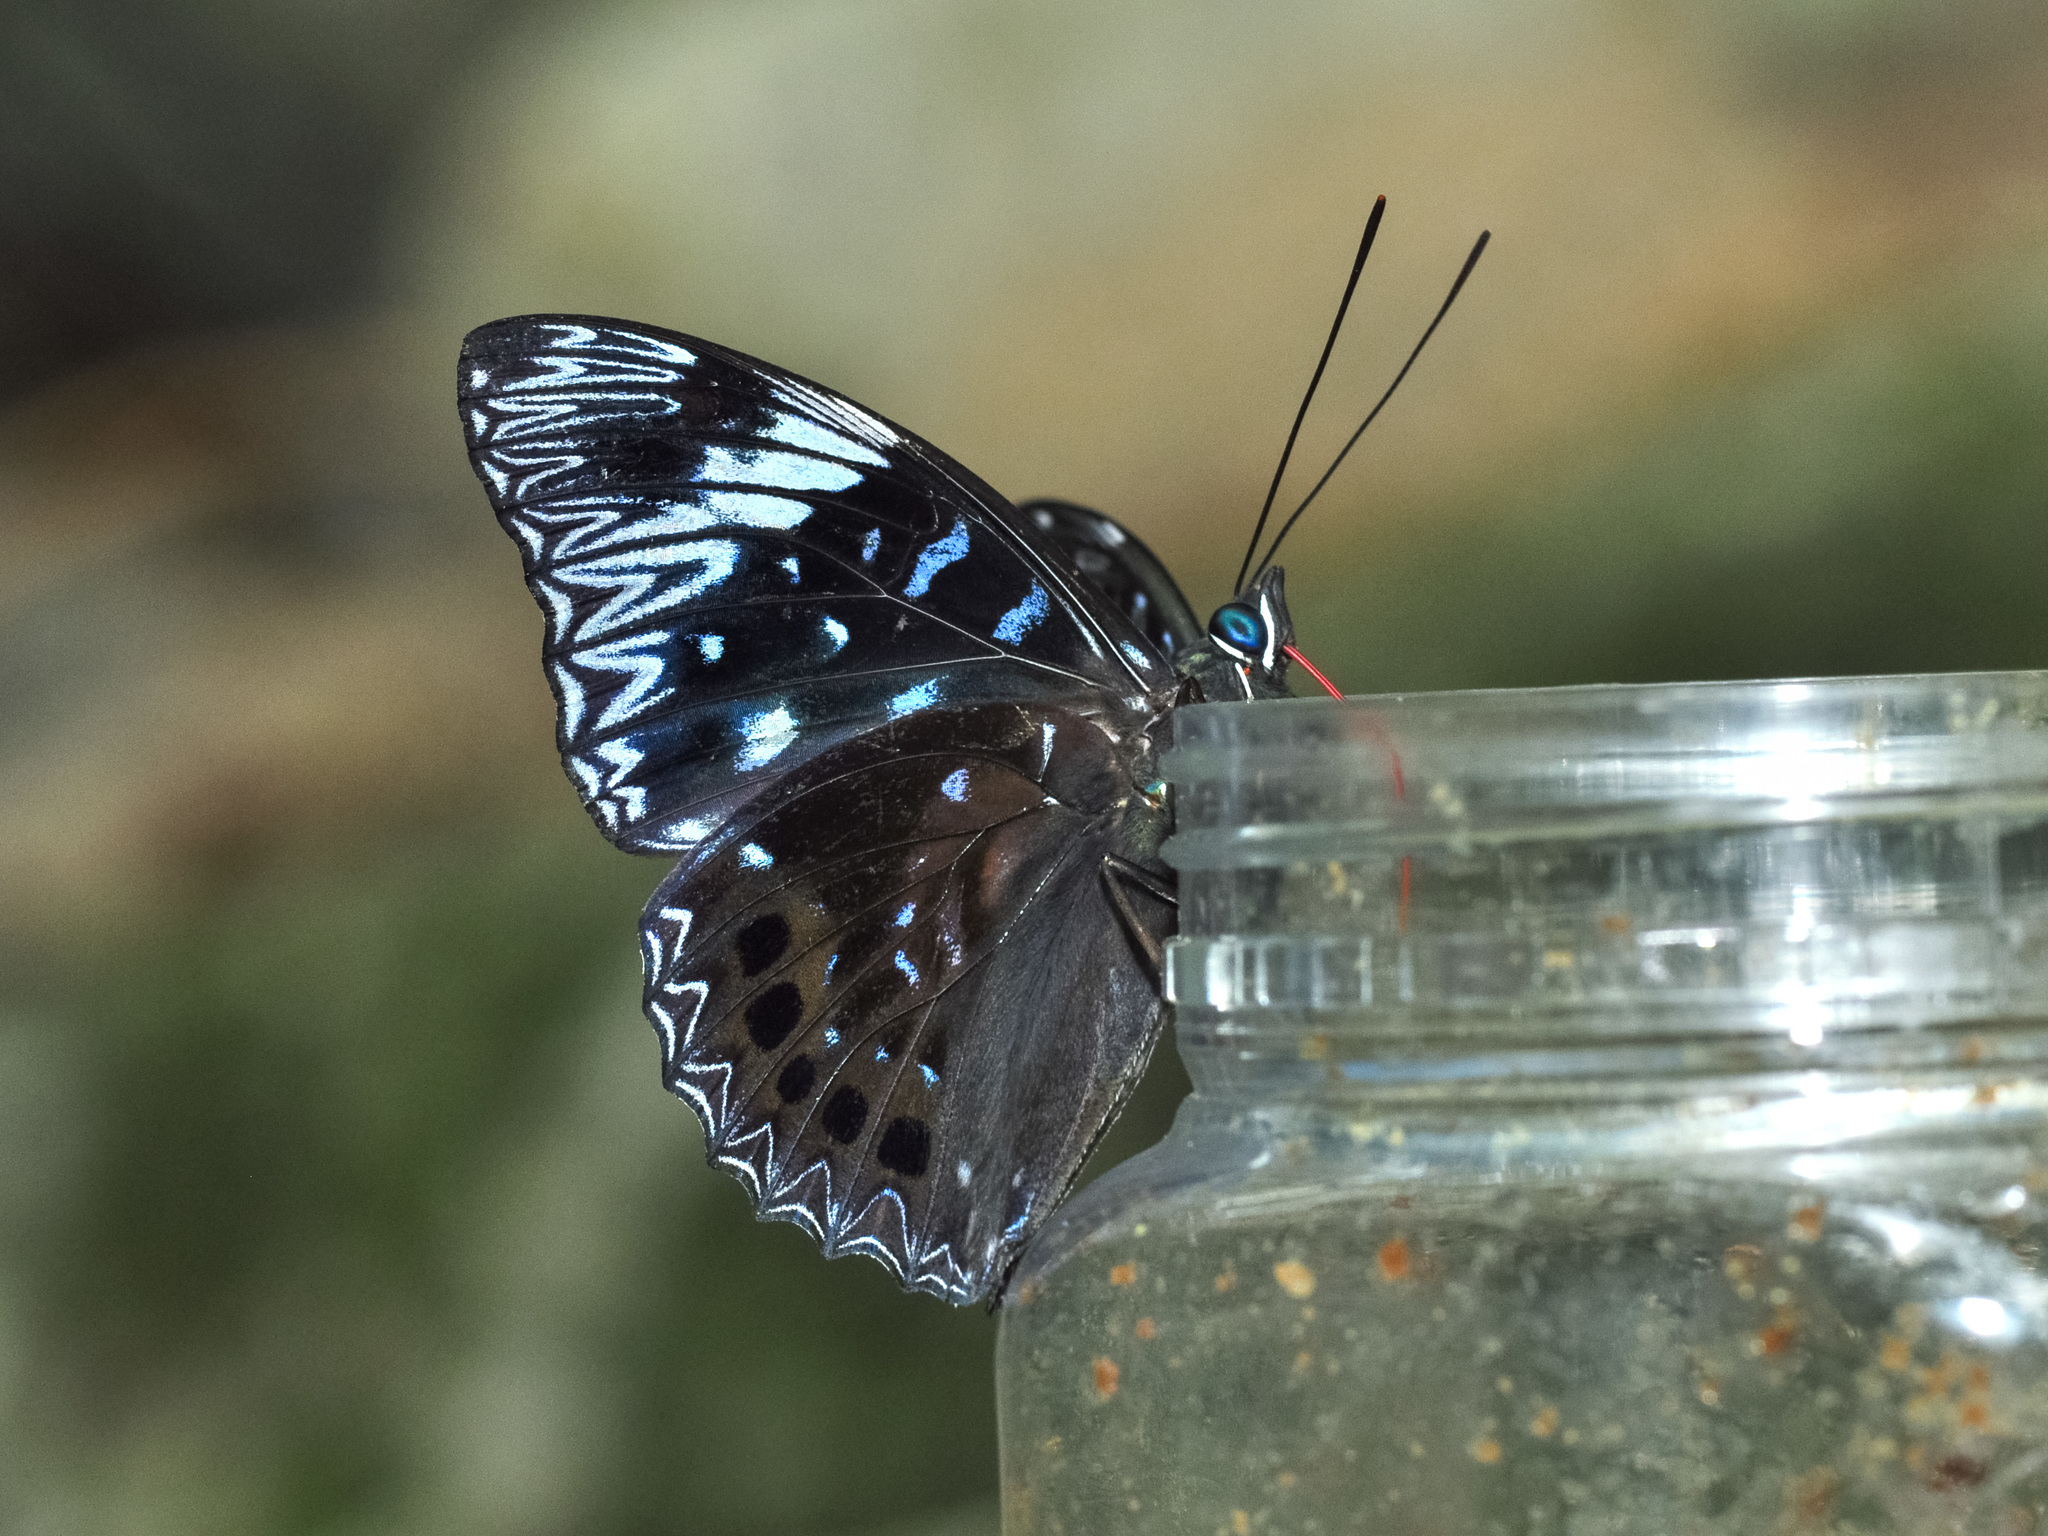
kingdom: Animalia
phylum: Arthropoda
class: Insecta
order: Lepidoptera
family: Nymphalidae
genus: Dichorragia
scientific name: Dichorragia nesimachus
